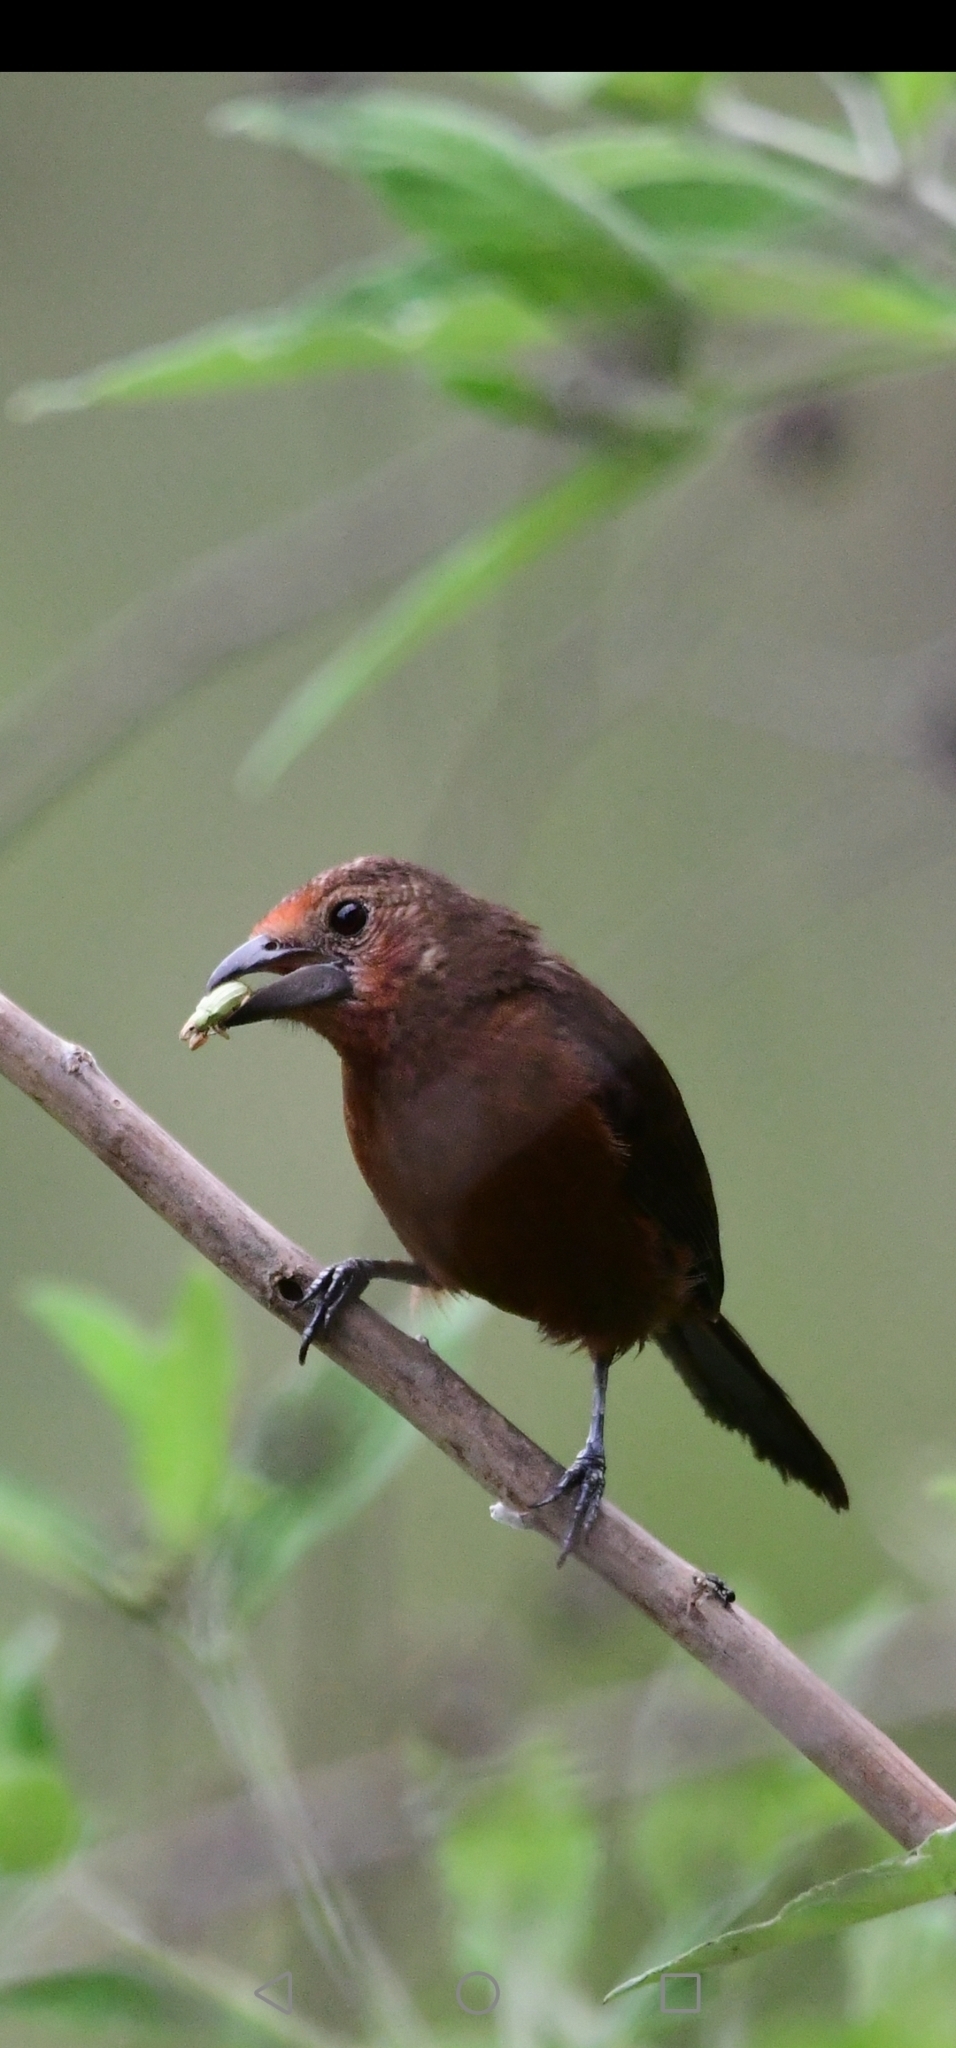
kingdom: Animalia
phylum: Chordata
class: Aves
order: Passeriformes
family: Thraupidae
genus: Ramphocelus
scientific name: Ramphocelus carbo
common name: Silver-beaked tanager
